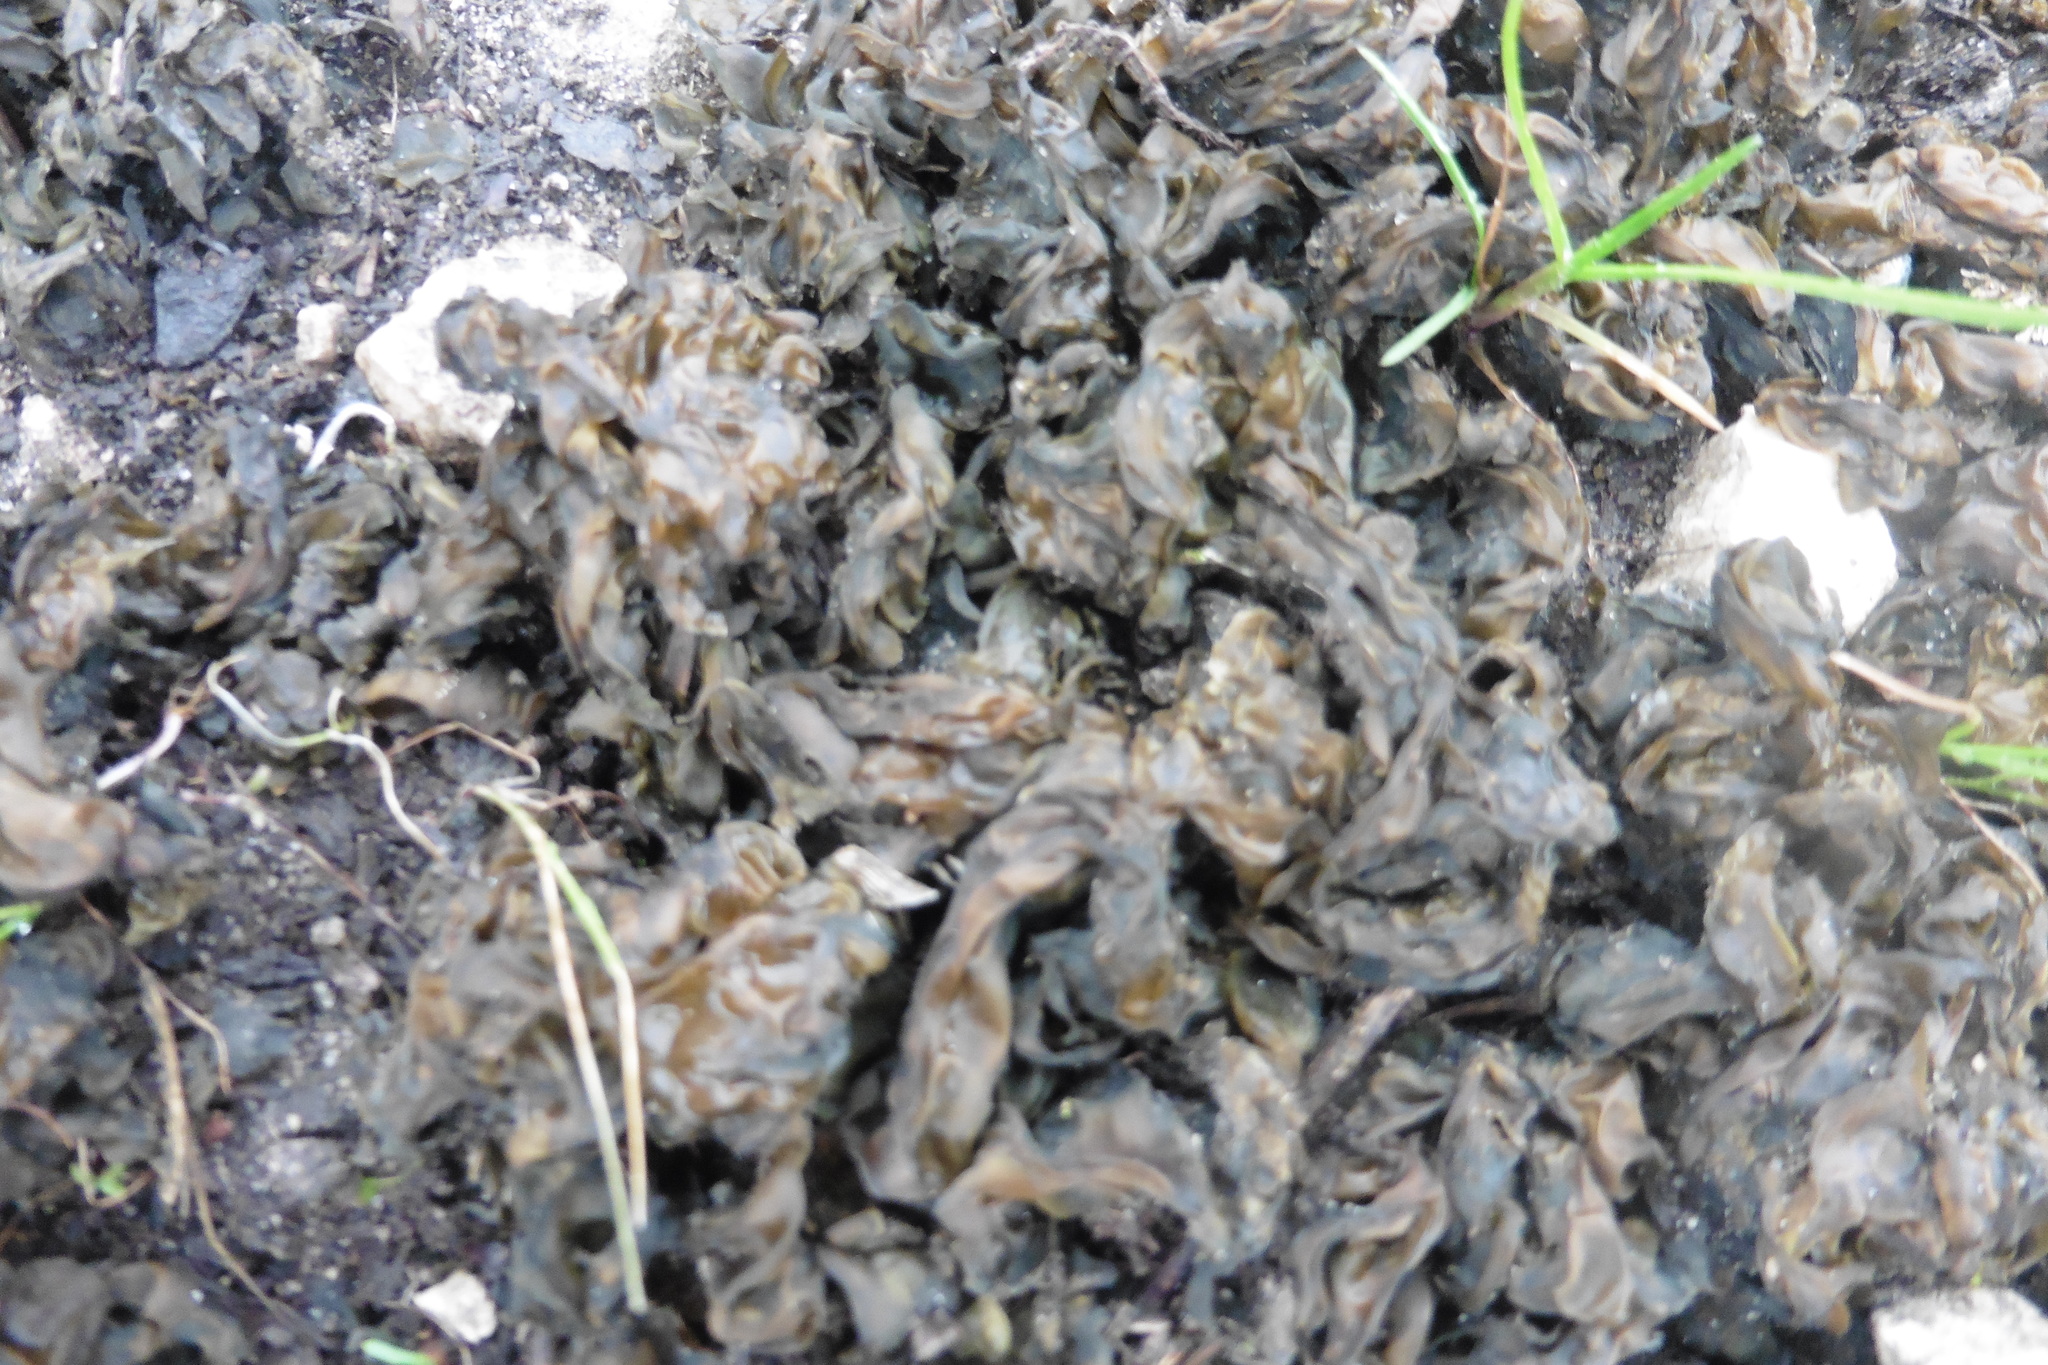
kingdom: Bacteria
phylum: Cyanobacteria
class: Cyanobacteriia
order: Cyanobacteriales
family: Nostocaceae
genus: Nostoc
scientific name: Nostoc commune
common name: Star jelly
